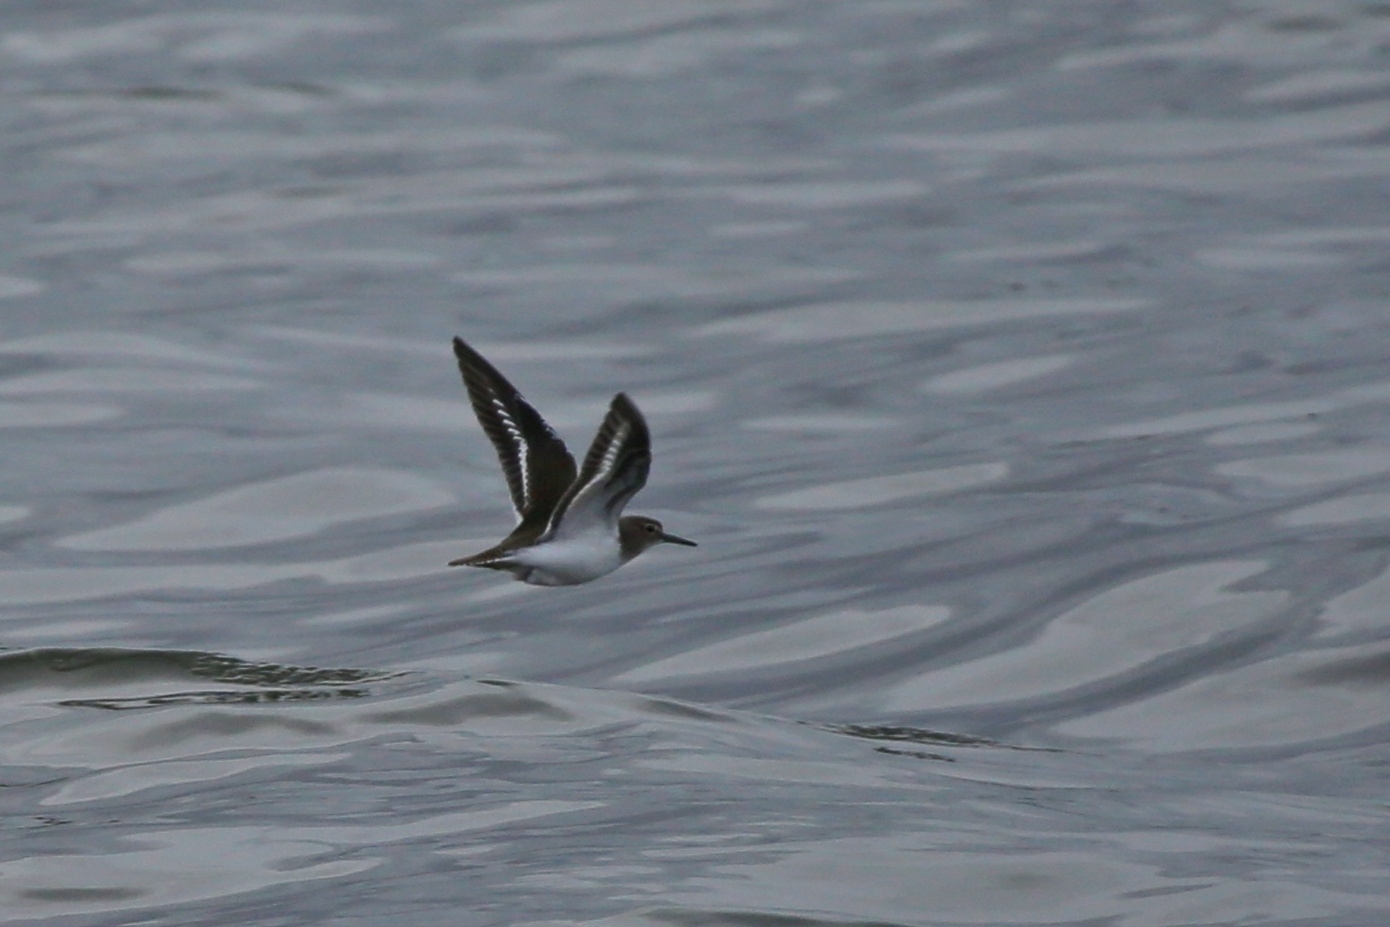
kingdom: Animalia
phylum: Chordata
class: Aves
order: Charadriiformes
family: Scolopacidae
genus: Actitis
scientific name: Actitis hypoleucos
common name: Common sandpiper
